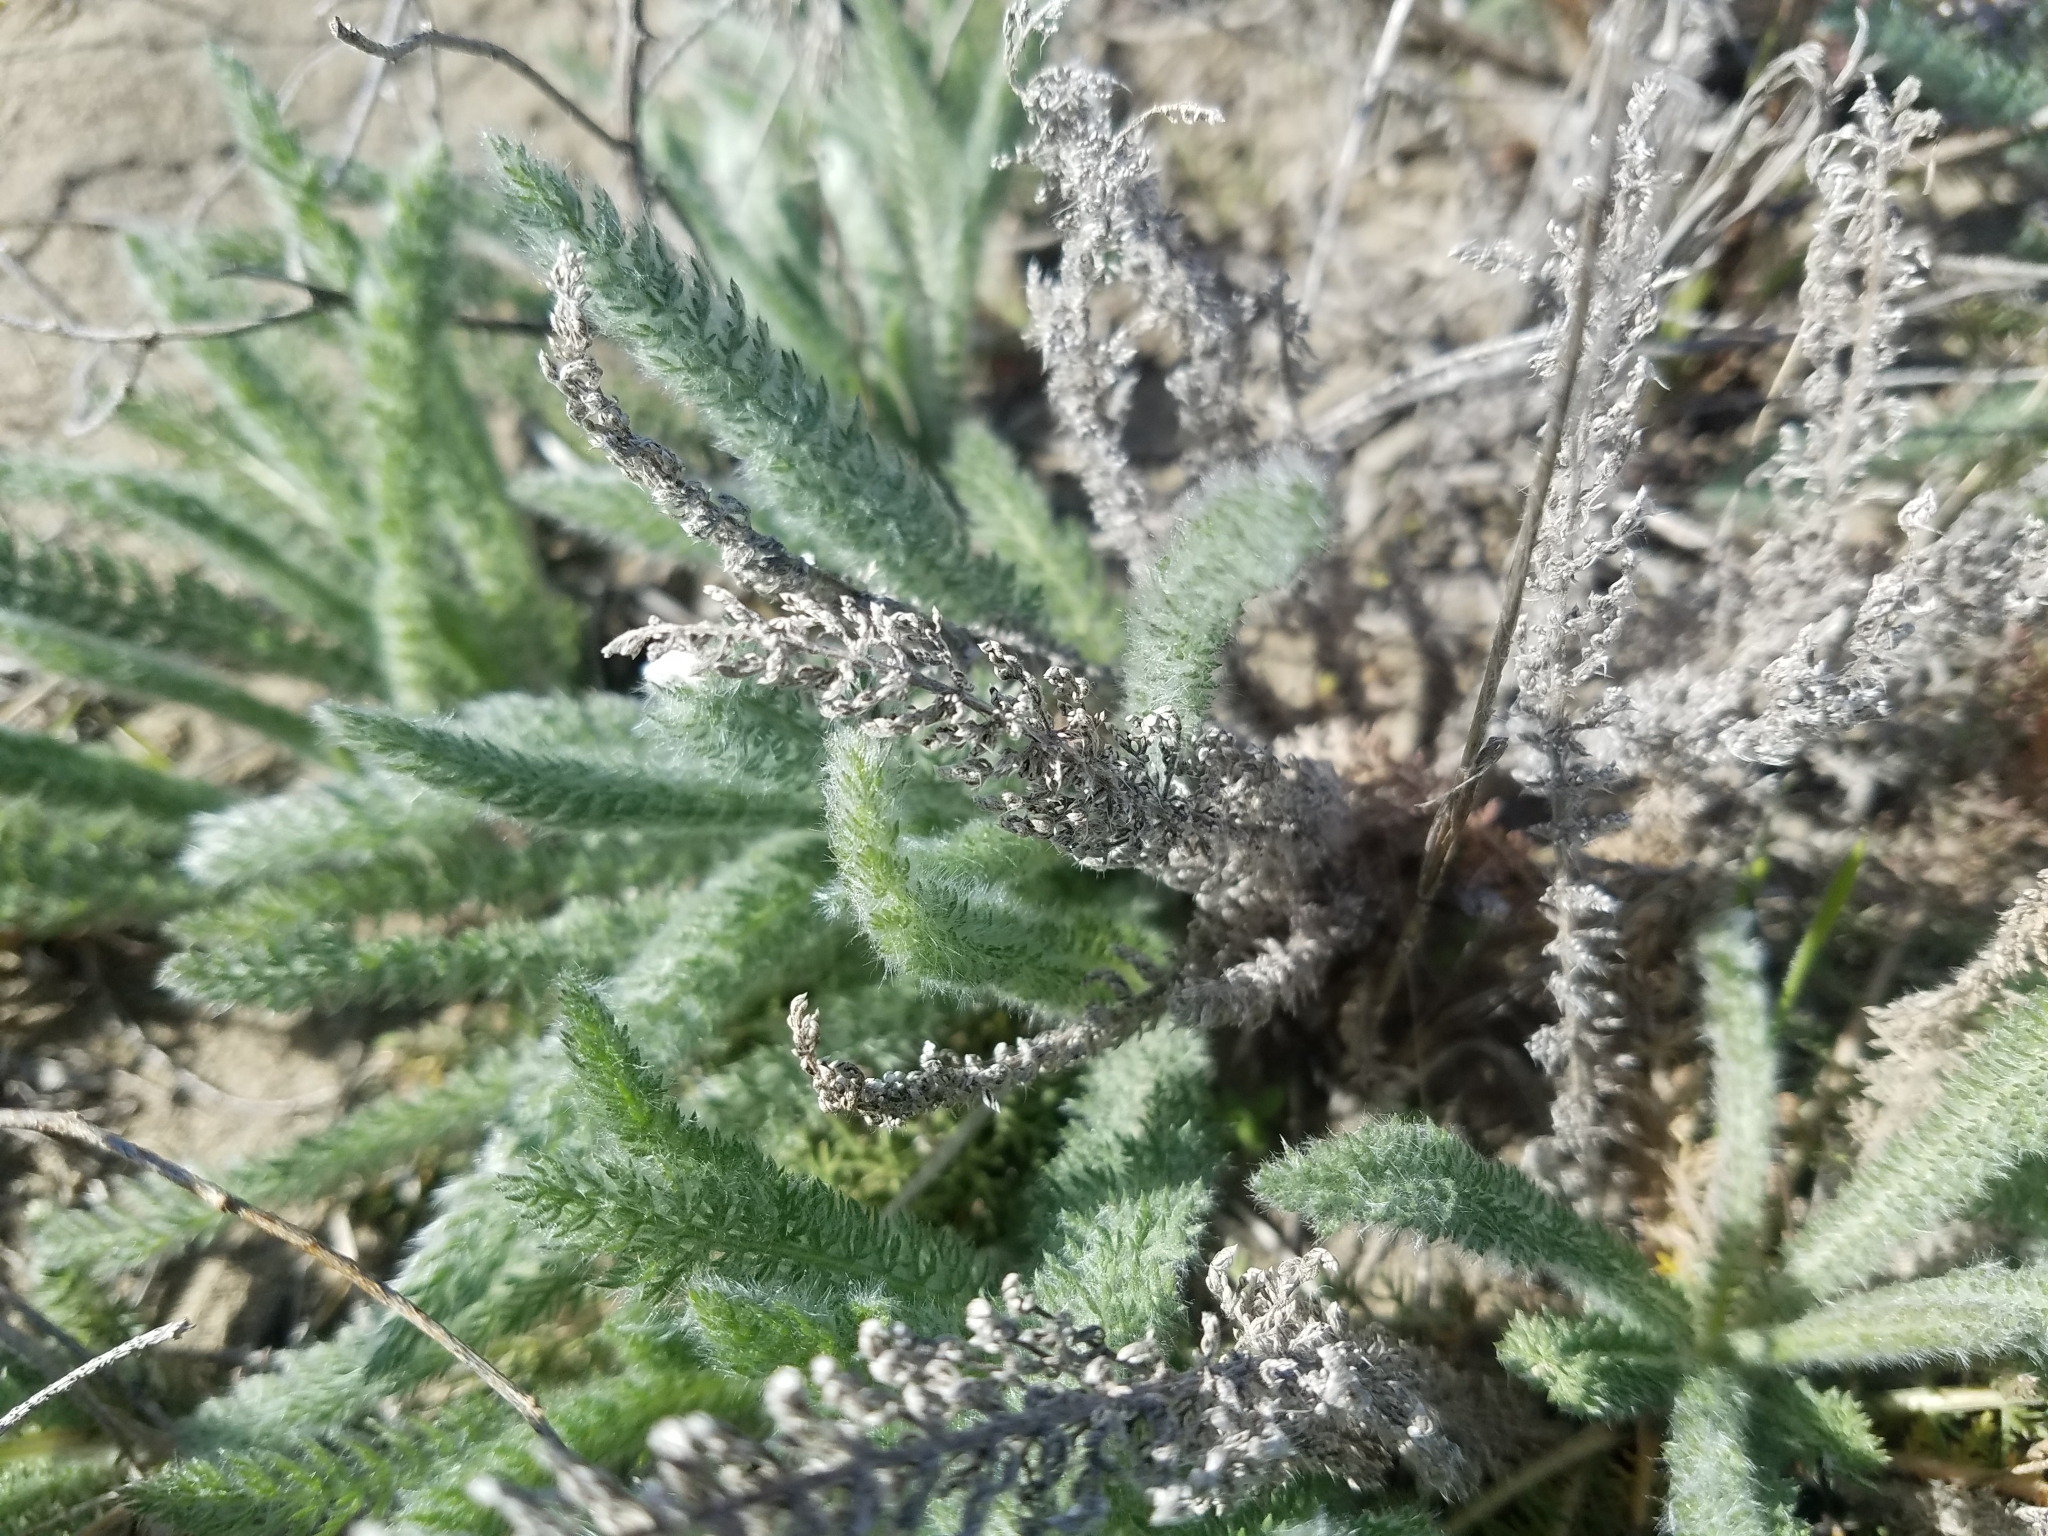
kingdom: Plantae
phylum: Tracheophyta
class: Magnoliopsida
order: Asterales
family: Asteraceae
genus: Achillea
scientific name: Achillea millefolium
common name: Yarrow
